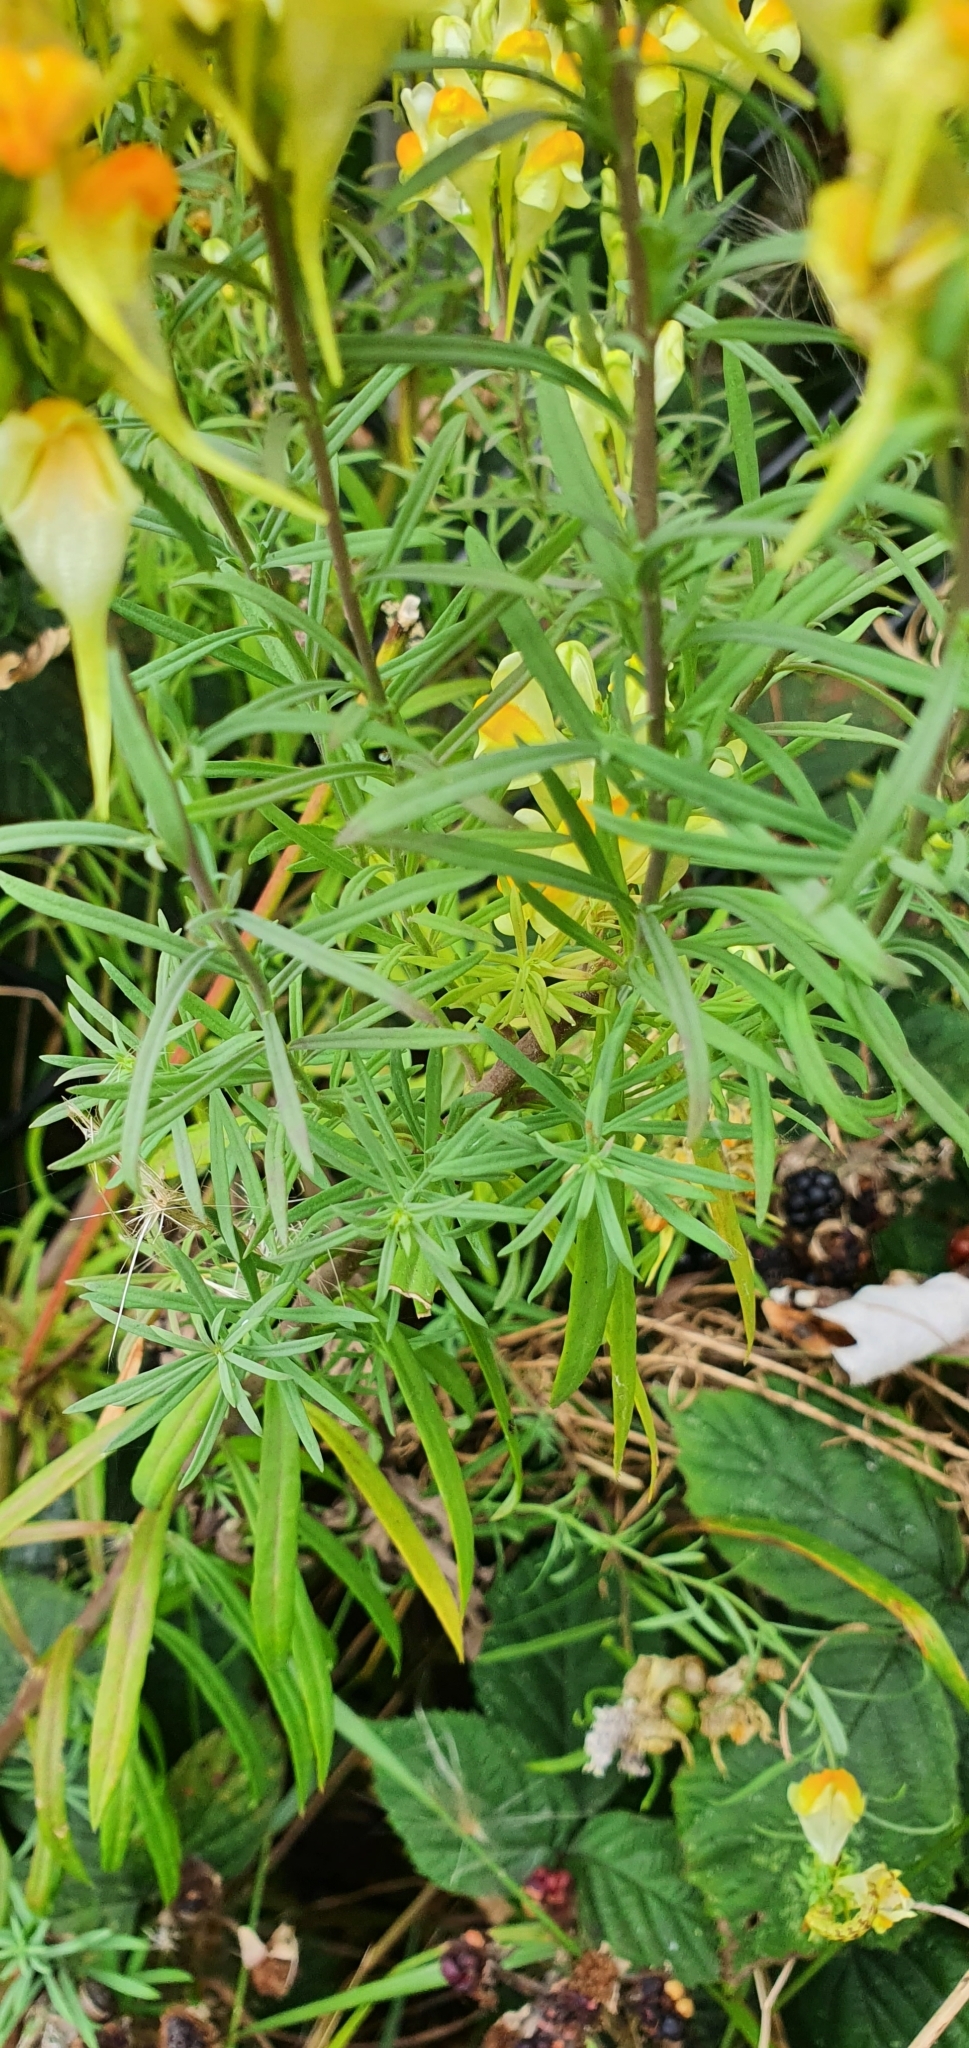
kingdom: Plantae
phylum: Tracheophyta
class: Magnoliopsida
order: Lamiales
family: Plantaginaceae
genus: Linaria
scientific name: Linaria vulgaris
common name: Butter and eggs
